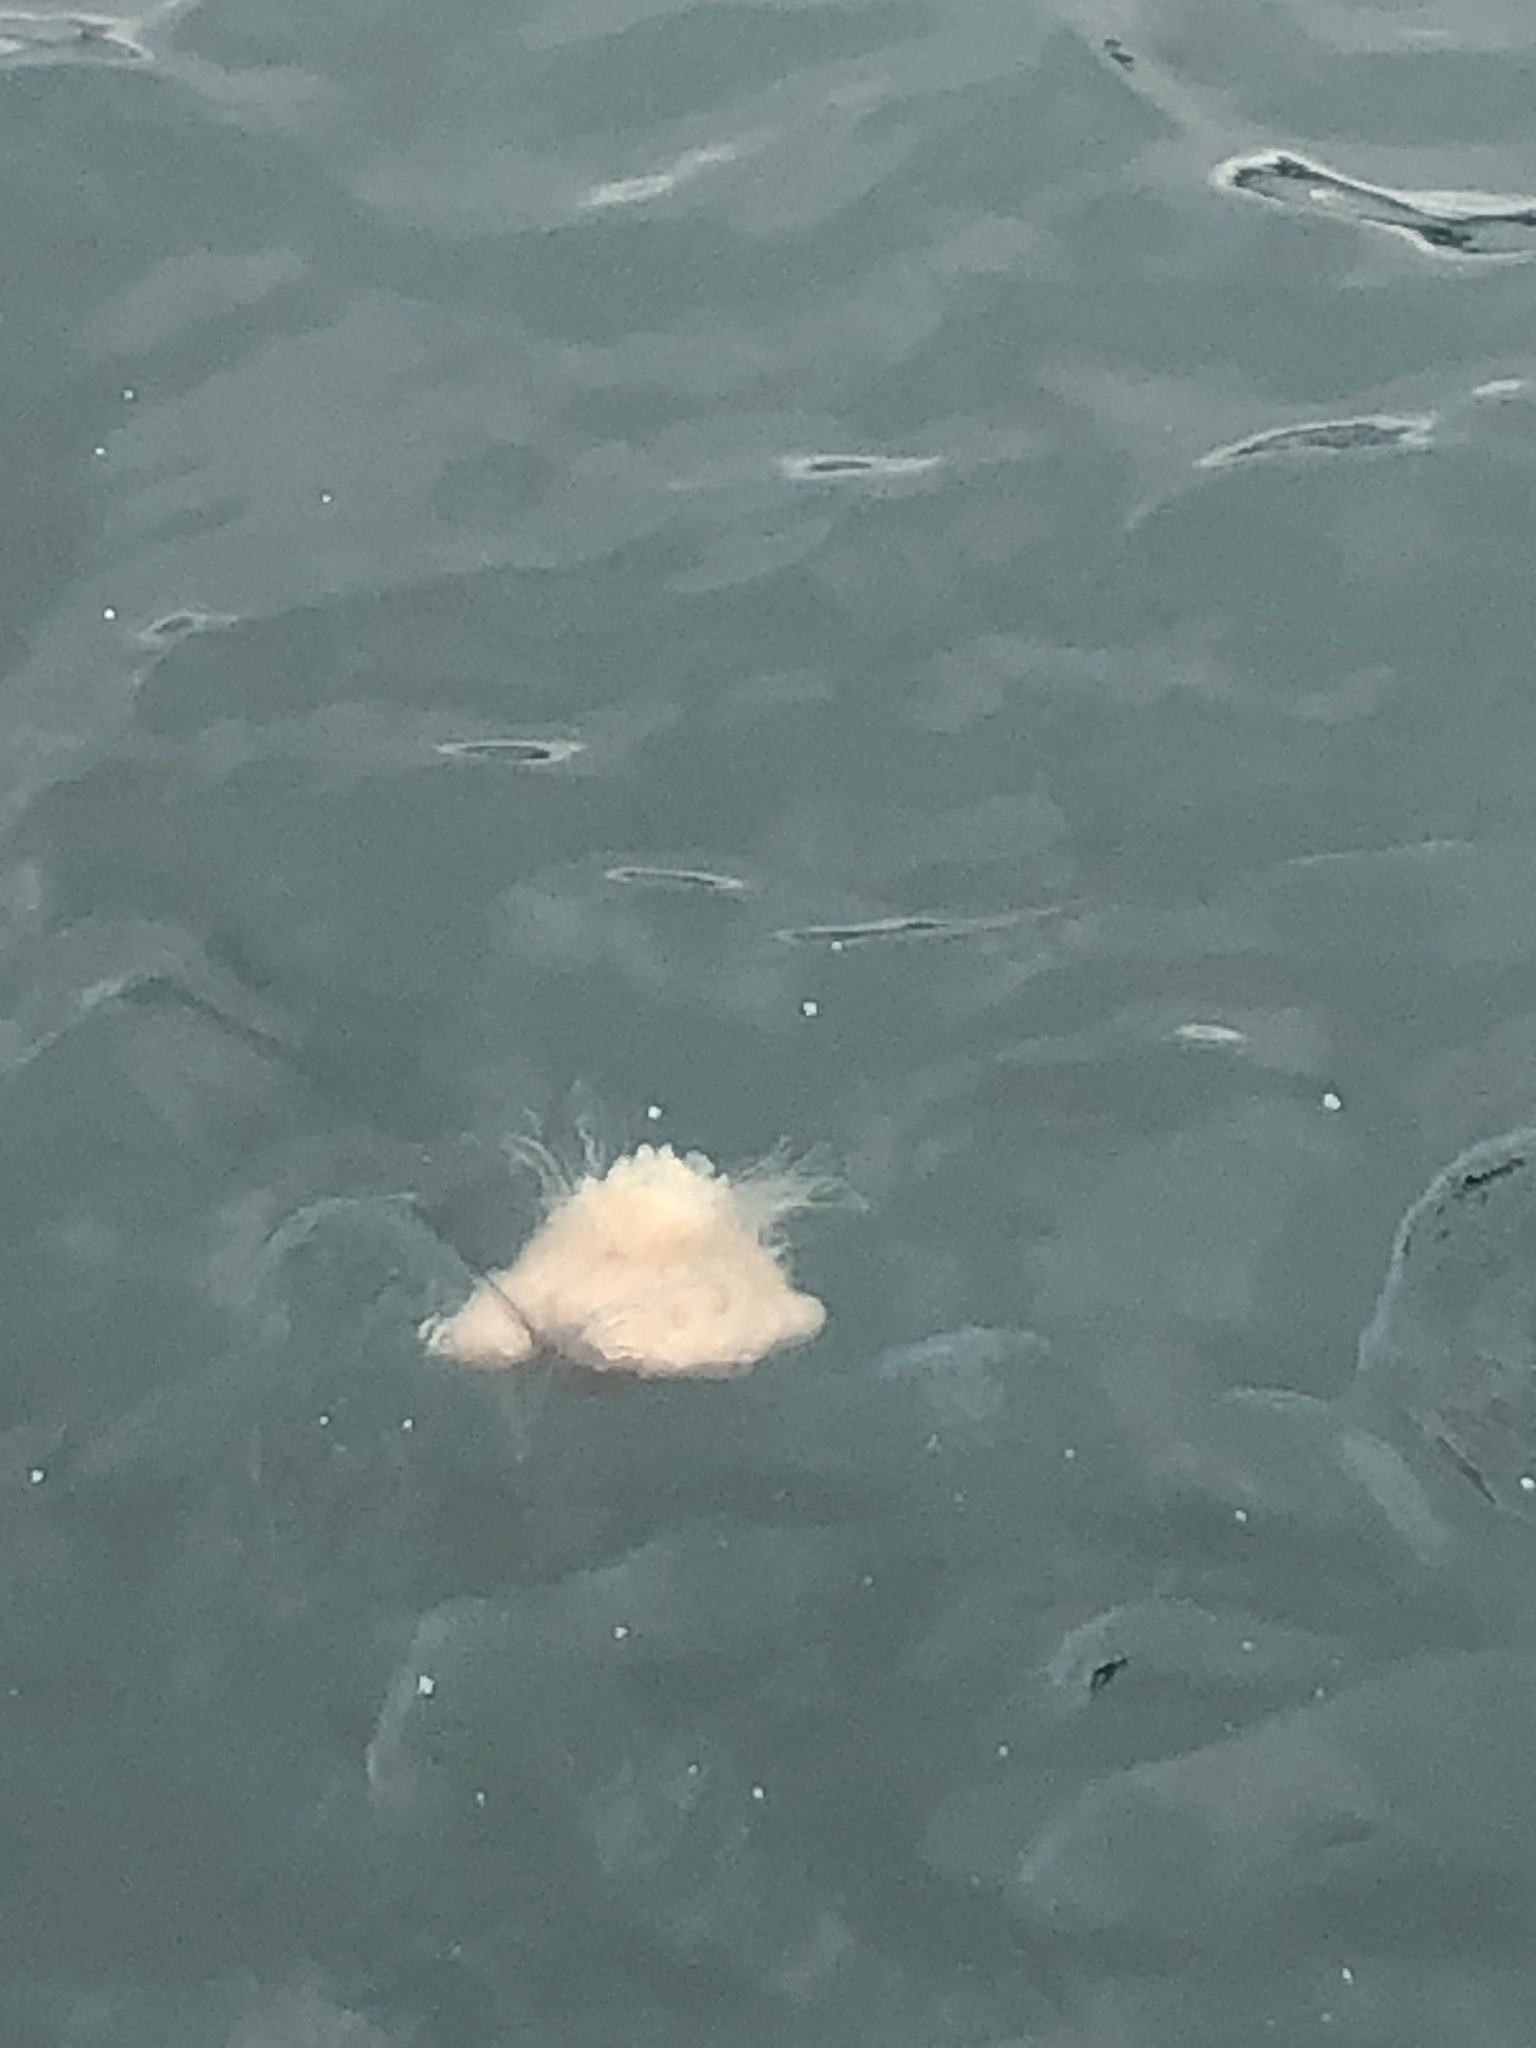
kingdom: Animalia
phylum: Cnidaria
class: Scyphozoa
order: Semaeostomeae
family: Cyaneidae
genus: Cyanea
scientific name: Cyanea nozakii
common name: Lion’s mane
